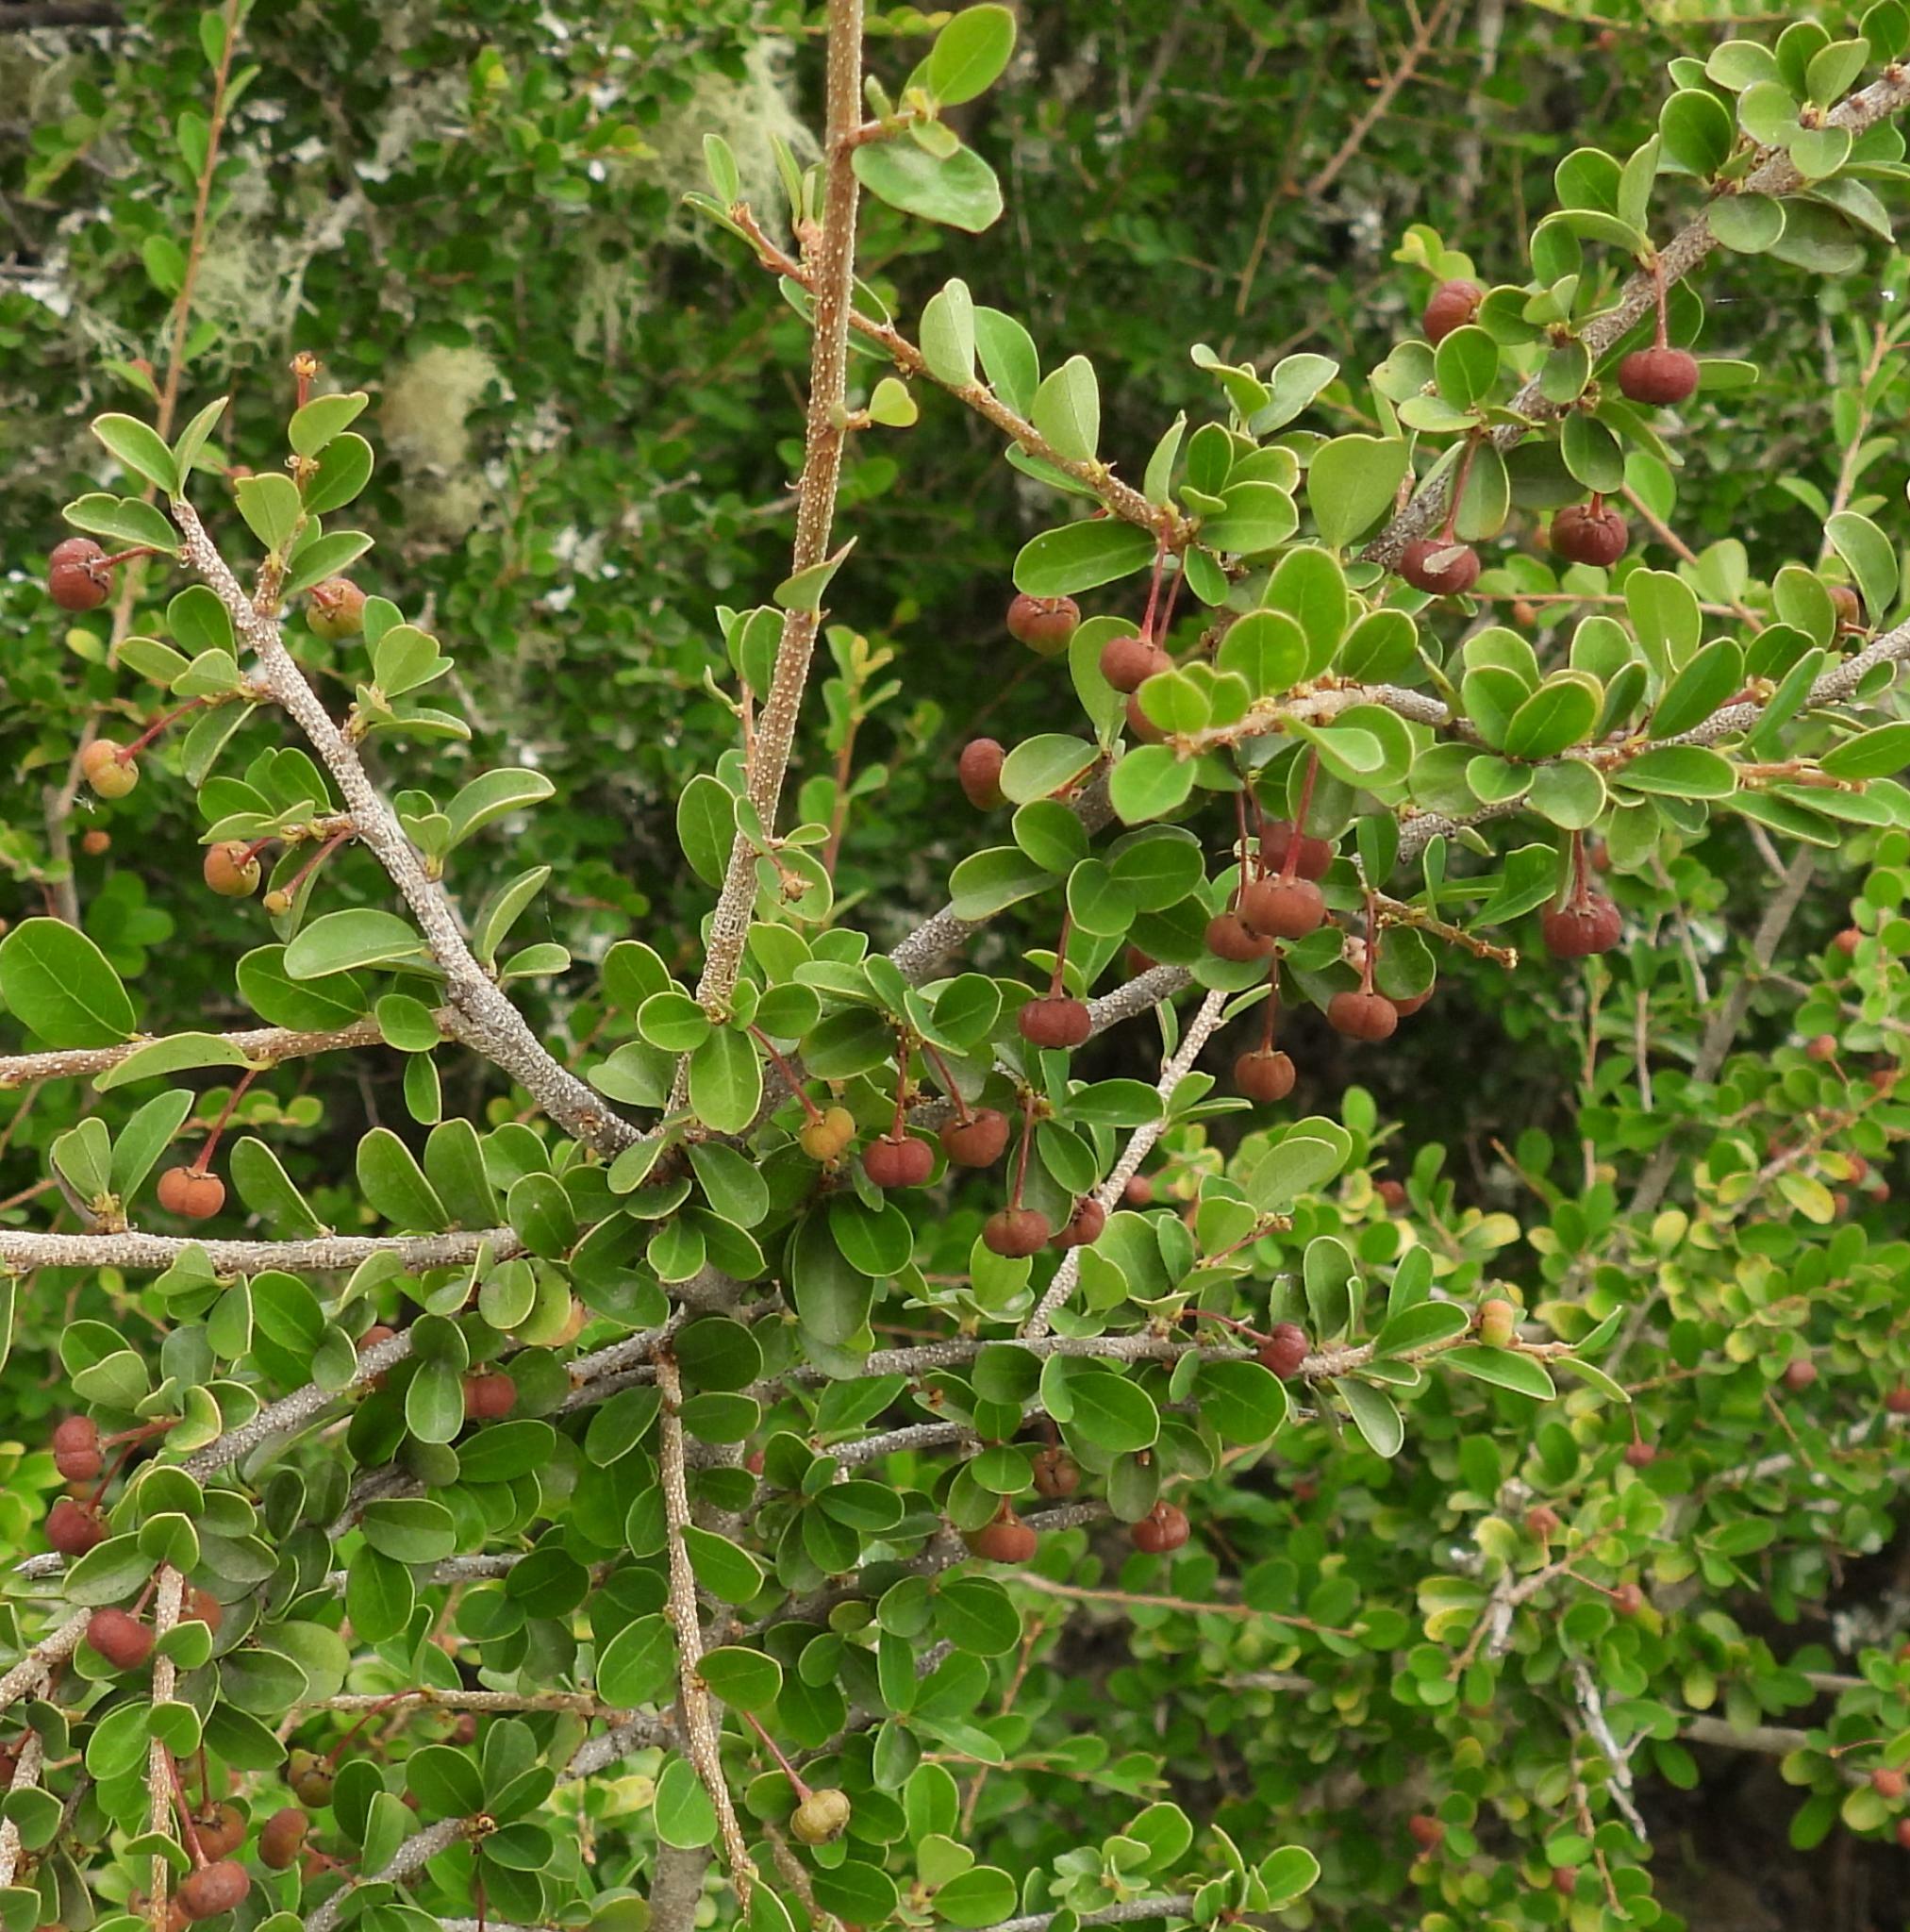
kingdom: Plantae
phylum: Tracheophyta
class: Magnoliopsida
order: Malpighiales
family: Phyllanthaceae
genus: Flueggea
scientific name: Flueggea verrucosa
